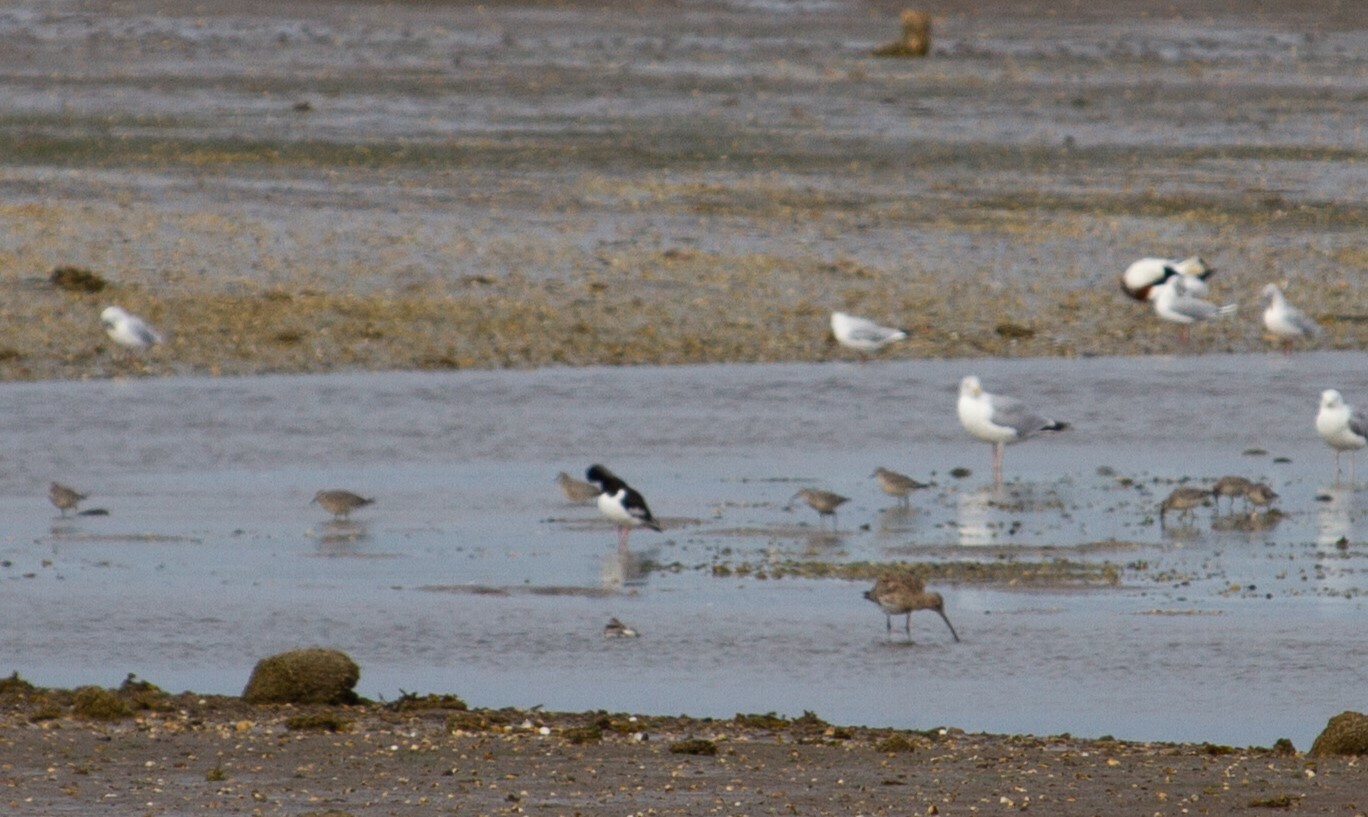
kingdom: Animalia
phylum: Chordata
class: Aves
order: Charadriiformes
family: Scolopacidae
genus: Calidris
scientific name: Calidris canutus
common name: Red knot
